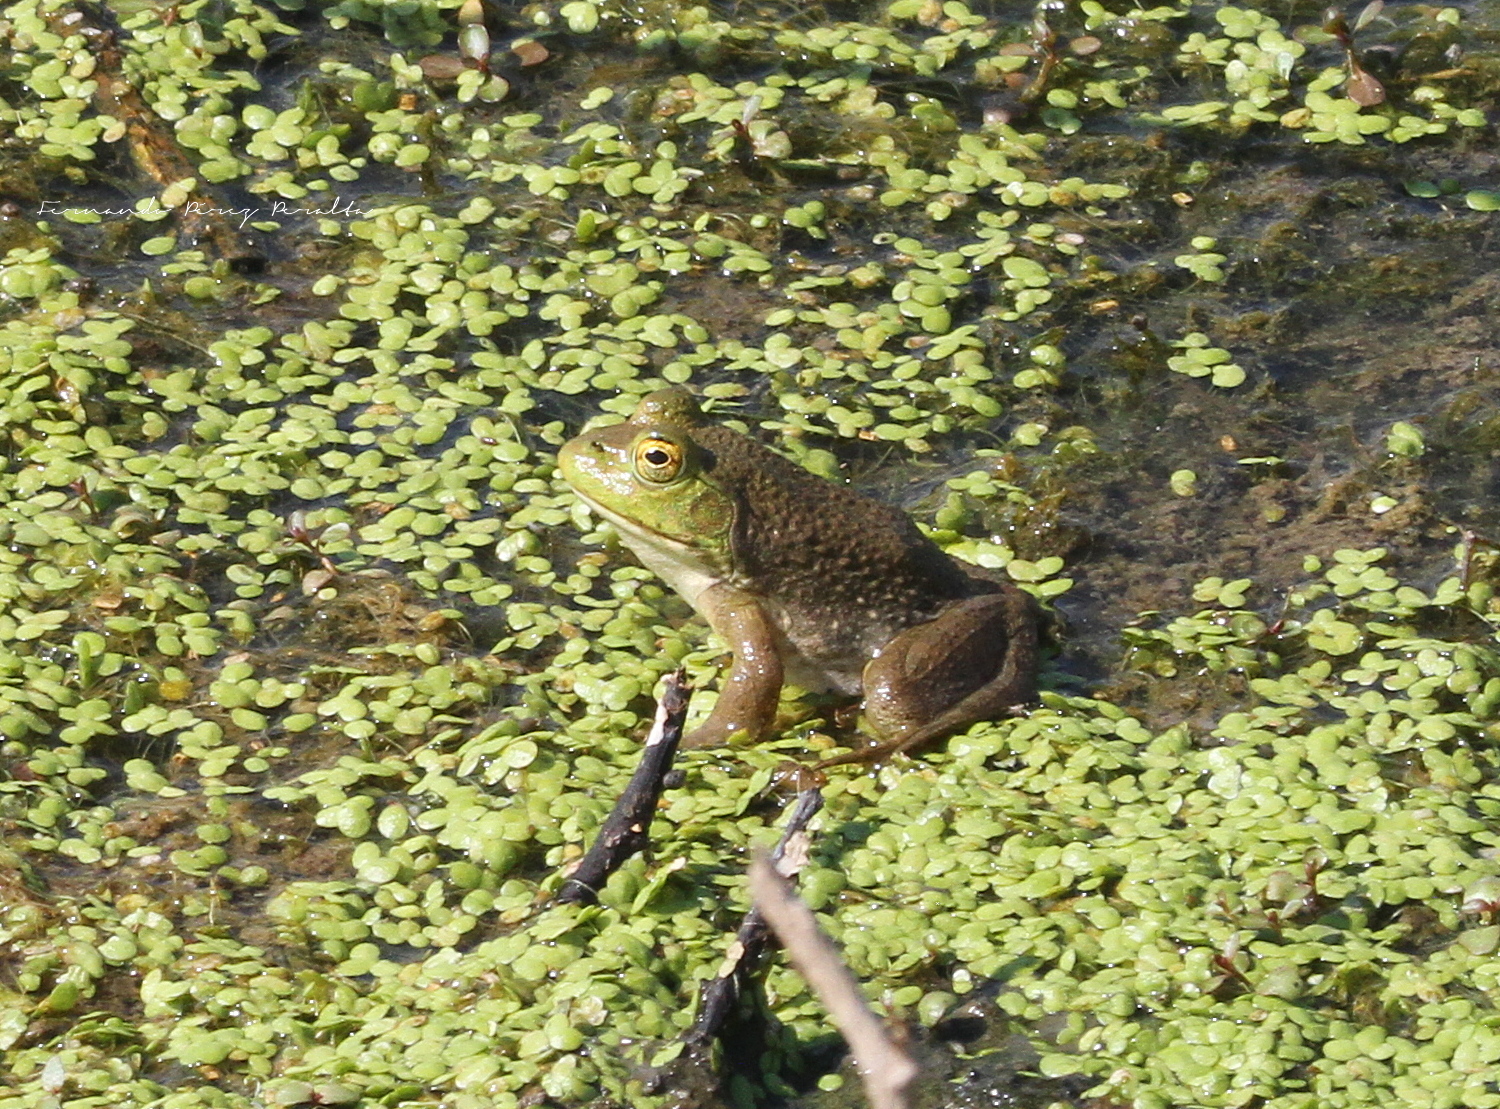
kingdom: Animalia
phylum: Chordata
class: Amphibia
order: Anura
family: Ranidae
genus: Lithobates
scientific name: Lithobates catesbeianus
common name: American bullfrog
